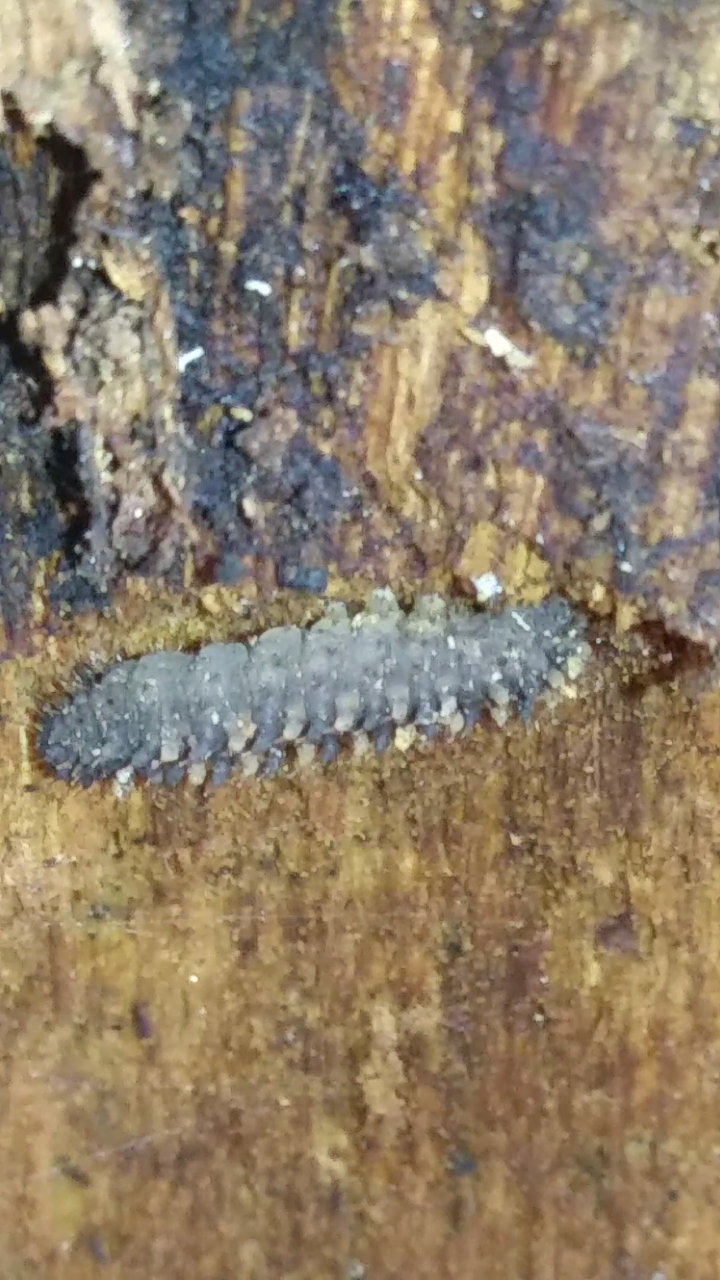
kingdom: Animalia
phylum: Arthropoda
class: Insecta
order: Lepidoptera
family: Tortricidae
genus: Platynota
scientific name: Platynota idaeusalis
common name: Tufted apple bud moth
